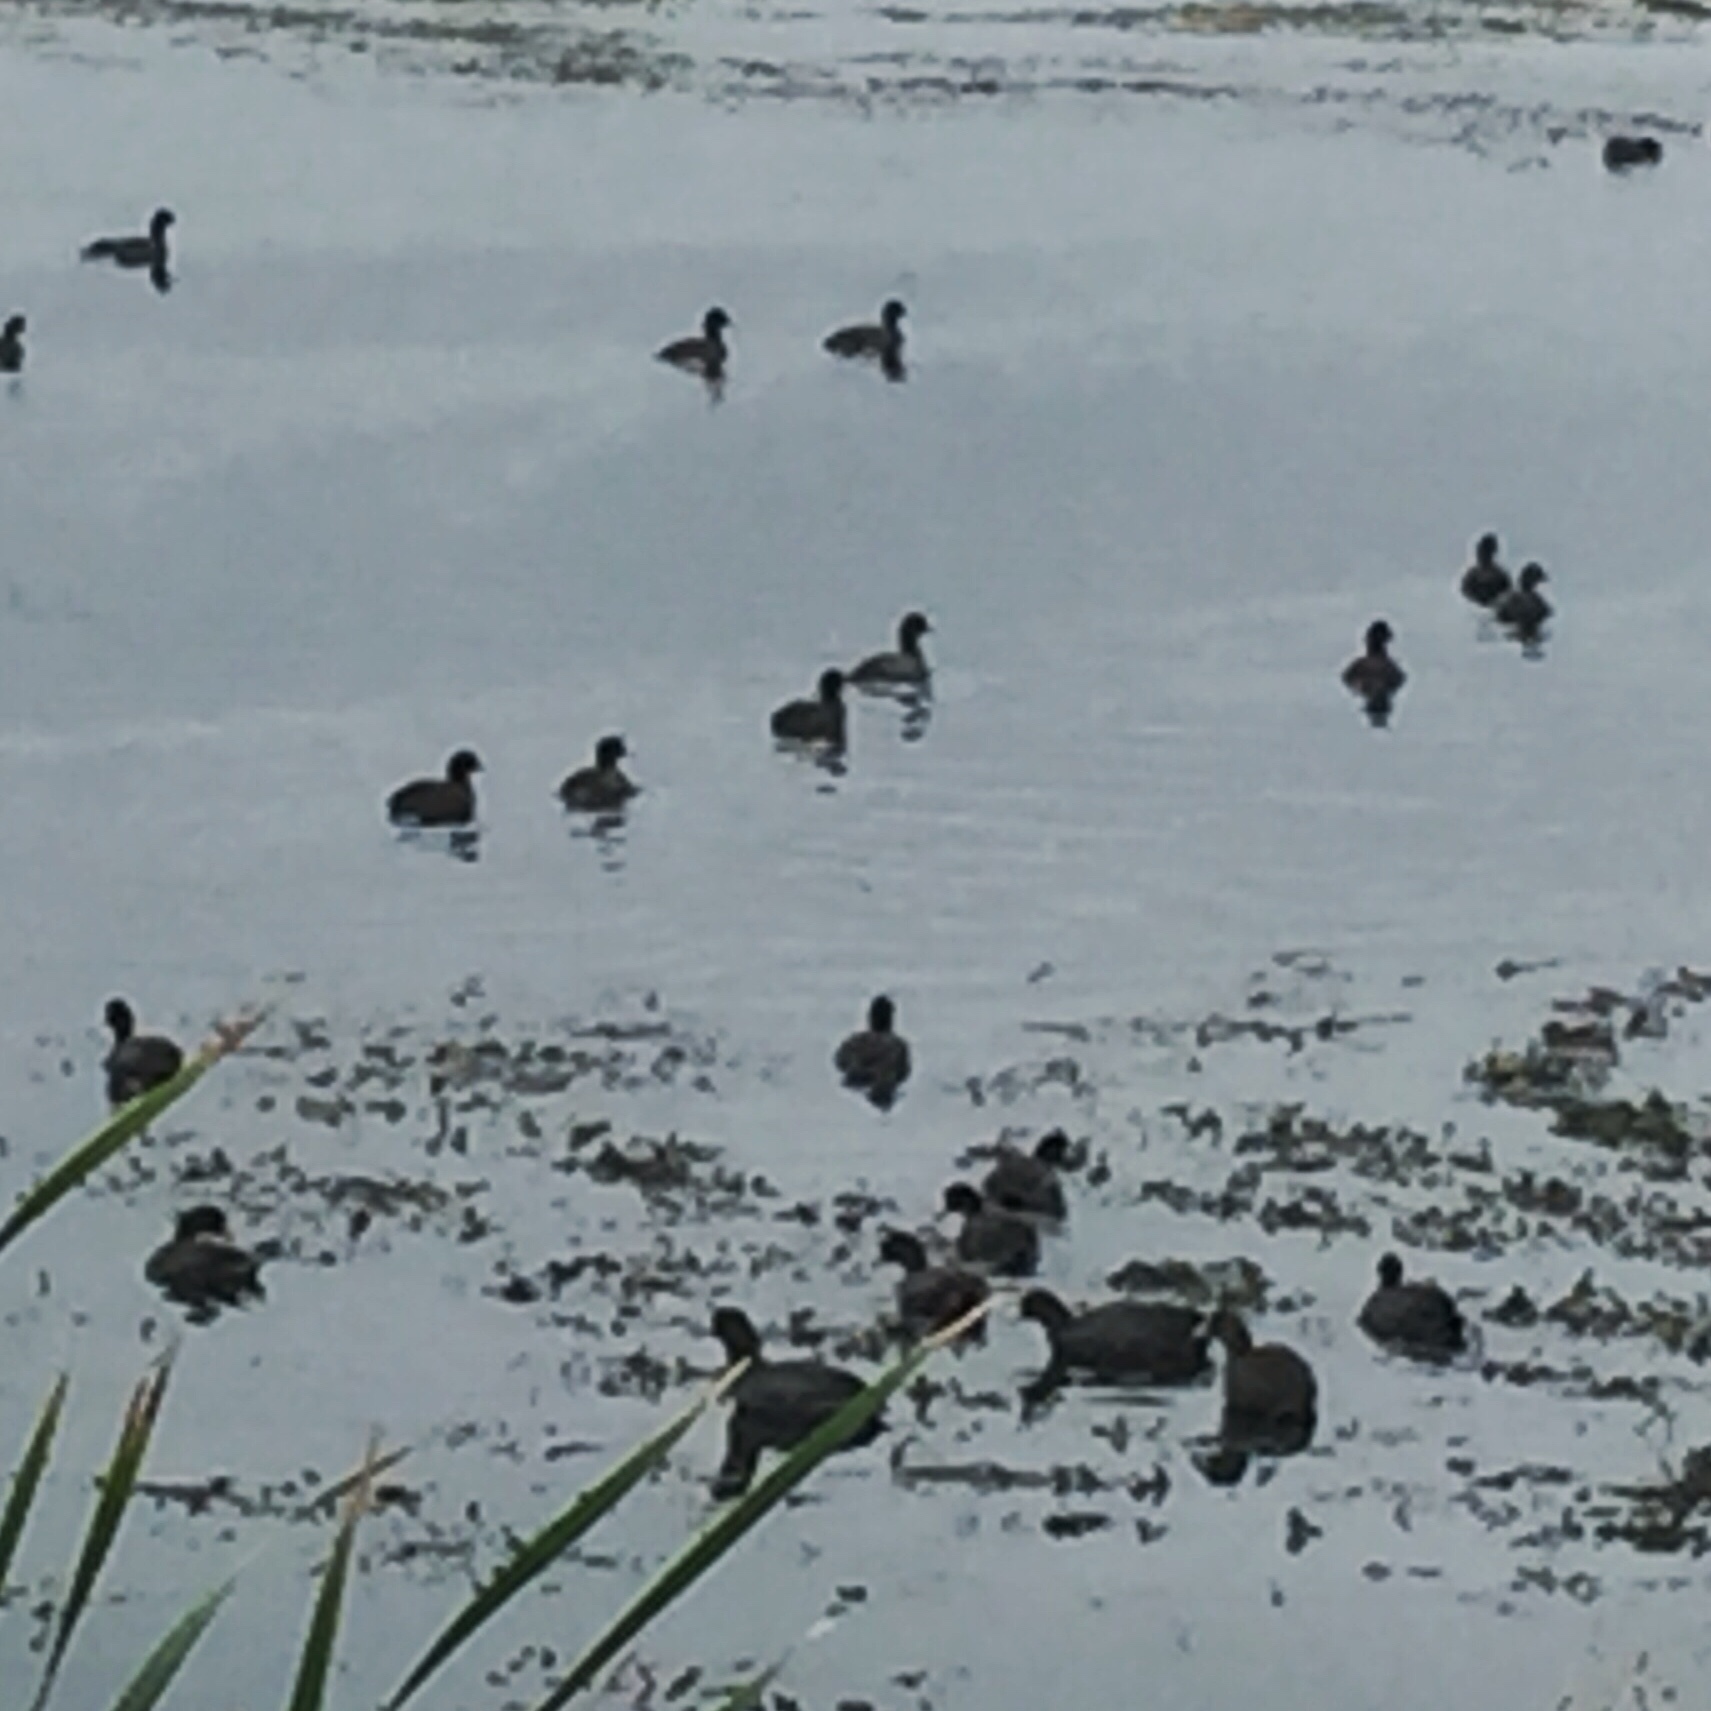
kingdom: Animalia
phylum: Chordata
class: Aves
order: Gruiformes
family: Rallidae
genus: Fulica
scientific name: Fulica americana
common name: American coot
